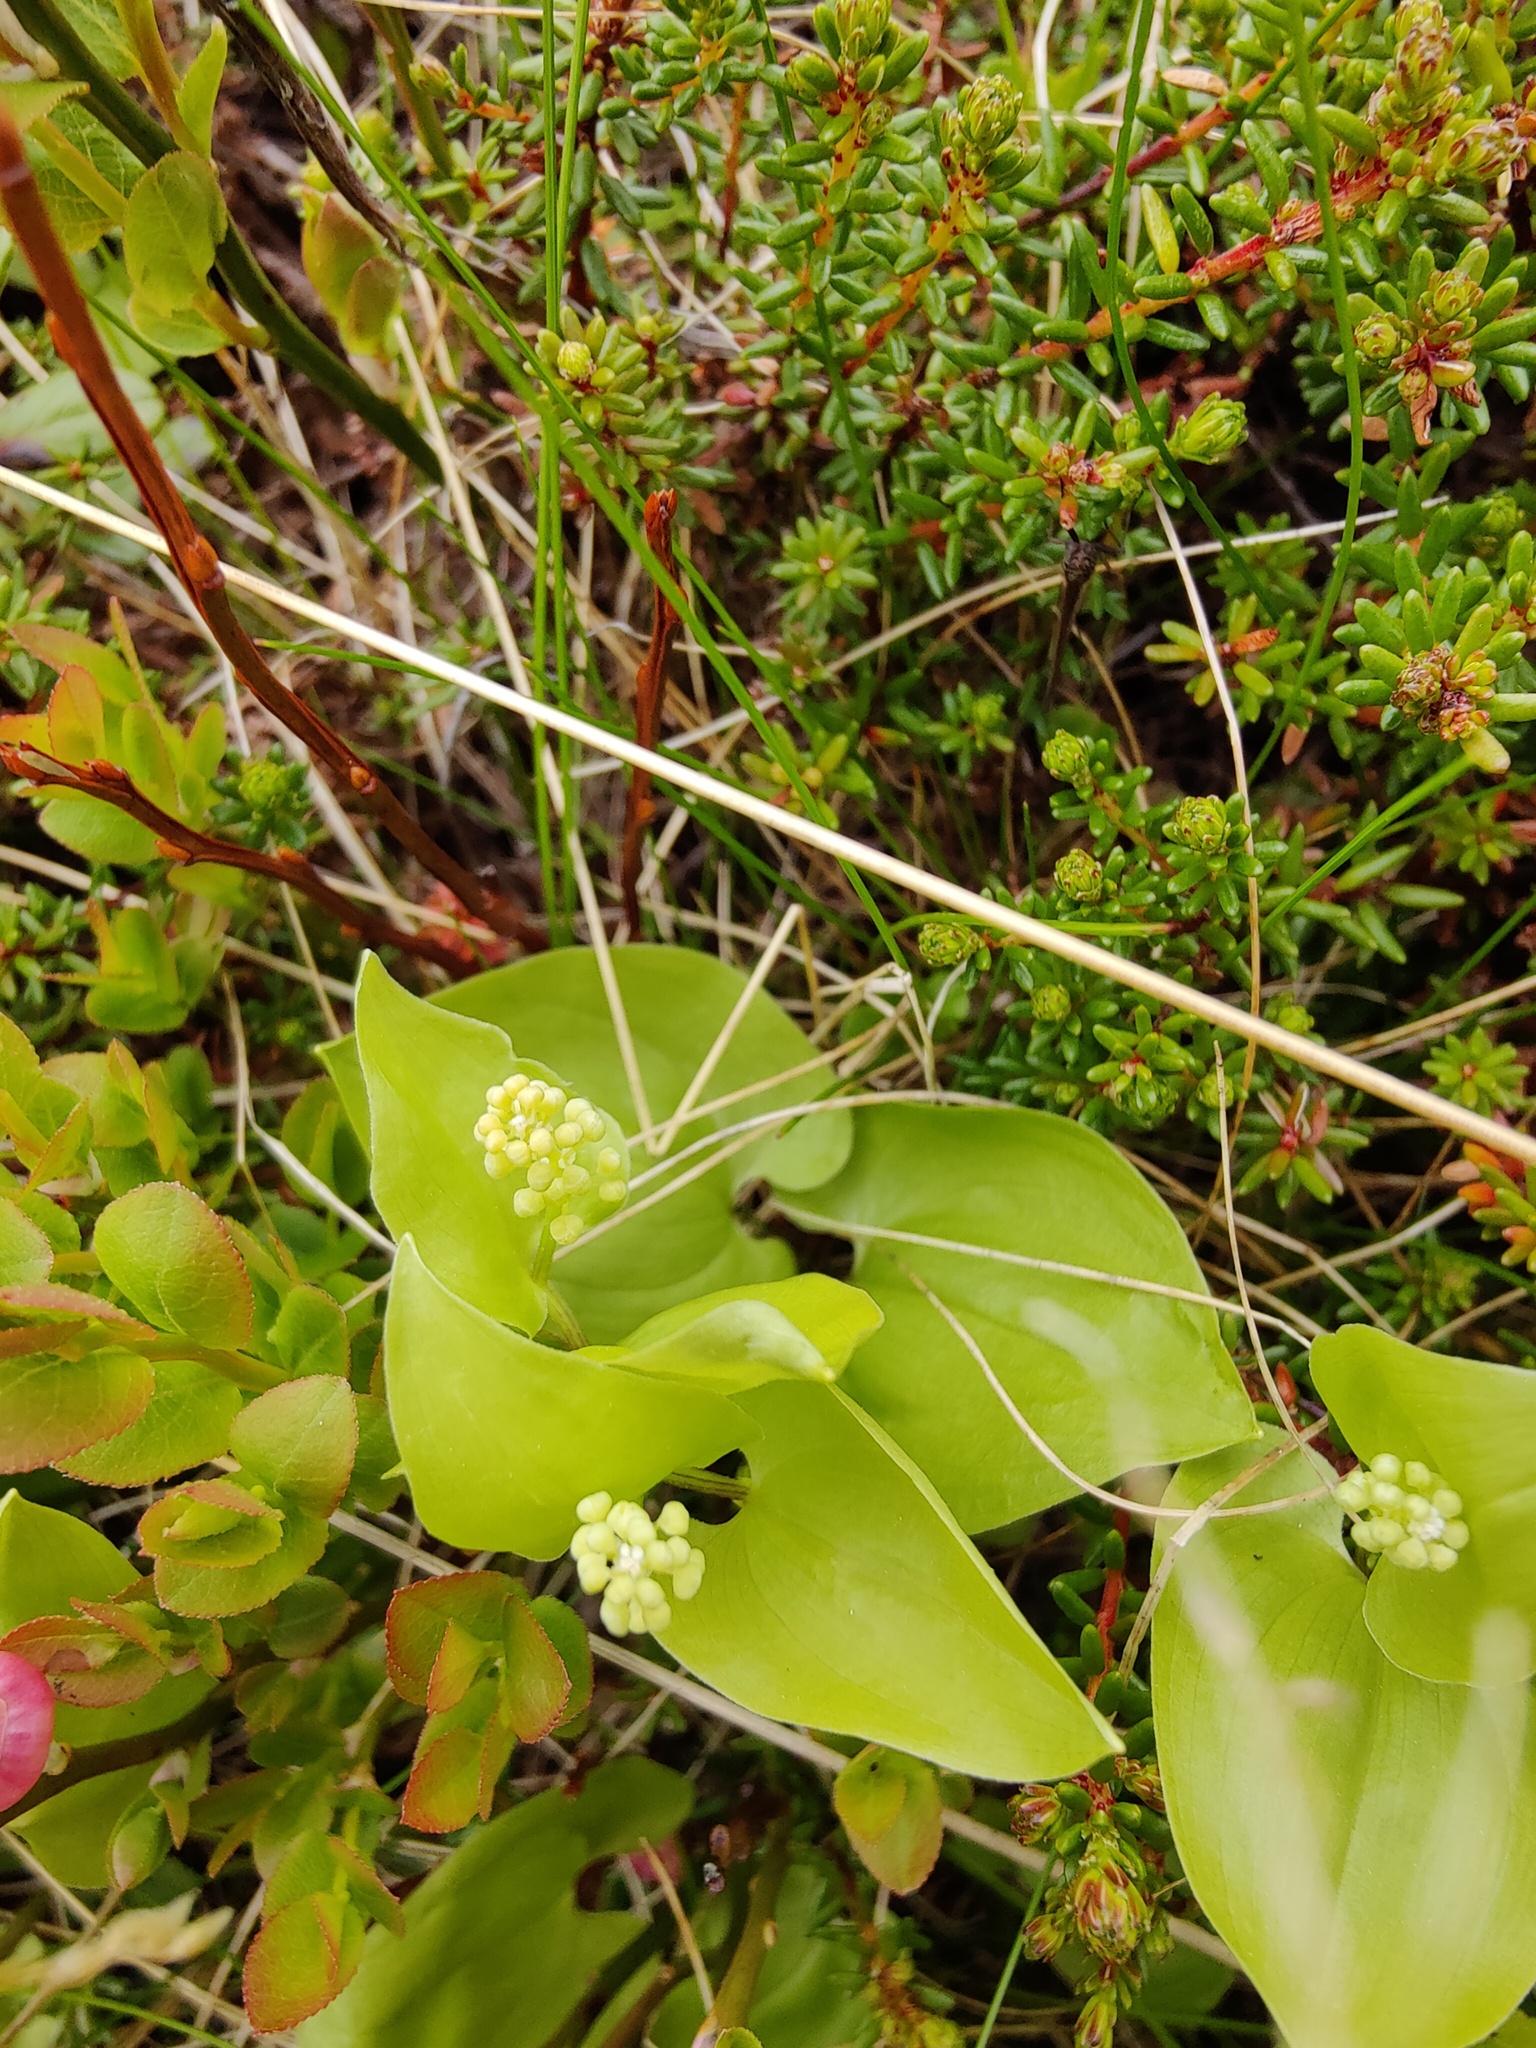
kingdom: Plantae
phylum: Tracheophyta
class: Liliopsida
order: Asparagales
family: Asparagaceae
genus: Maianthemum
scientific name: Maianthemum bifolium
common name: May lily
